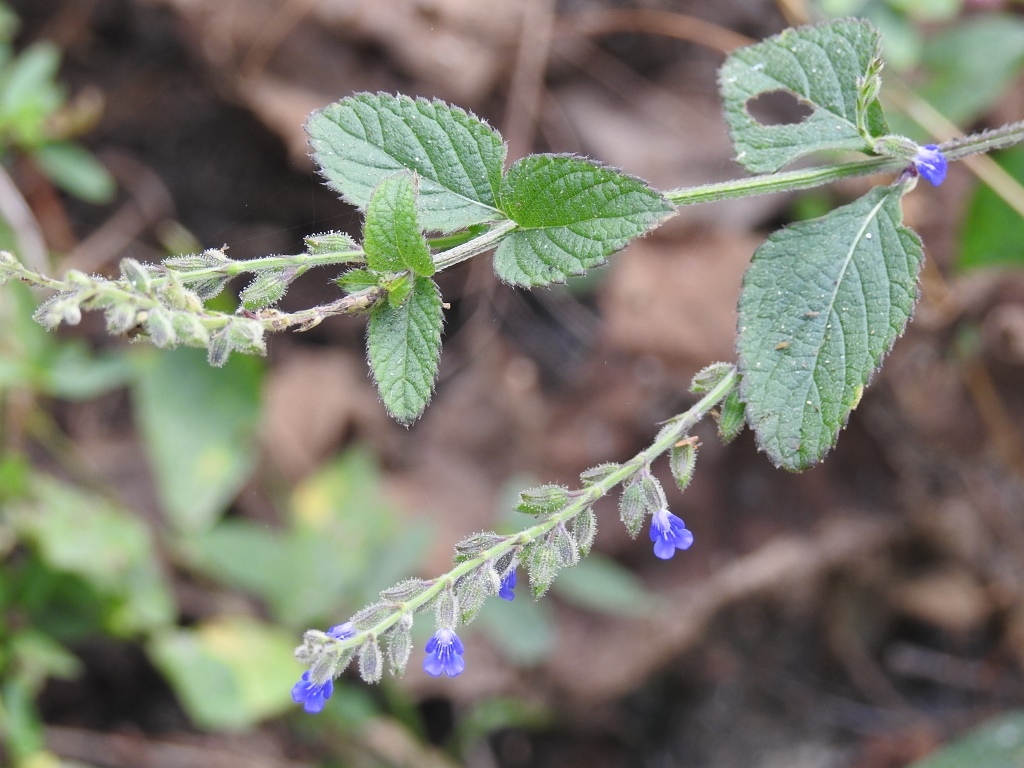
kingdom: Plantae
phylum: Tracheophyta
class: Magnoliopsida
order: Lamiales
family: Lamiaceae
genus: Salvia
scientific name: Salvia misella
